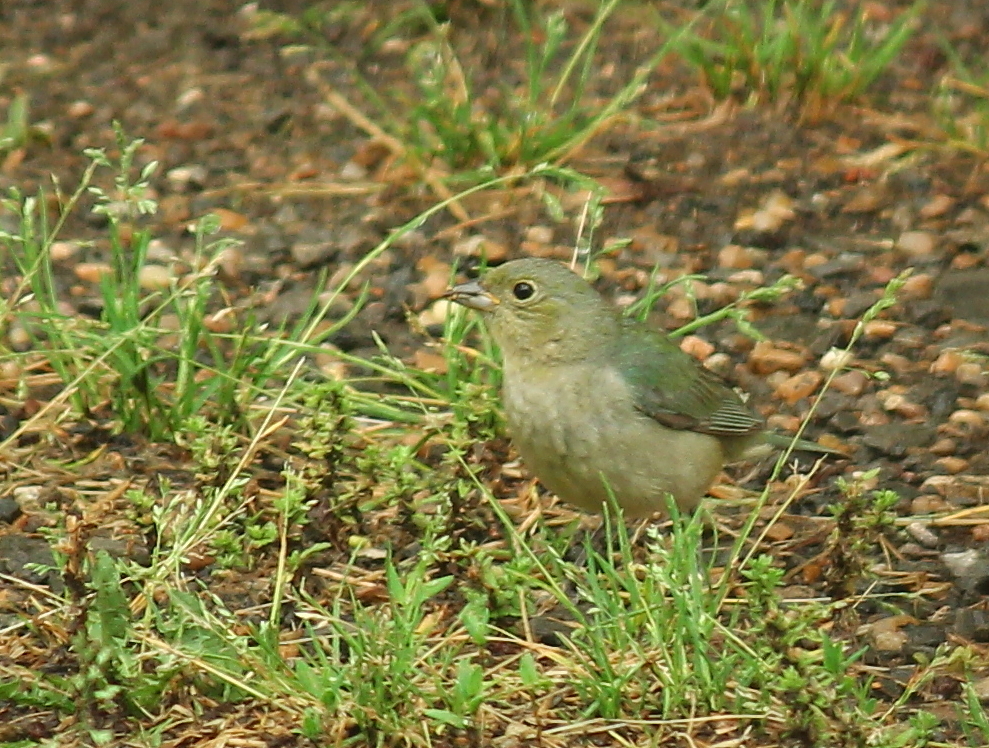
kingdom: Animalia
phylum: Chordata
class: Aves
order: Passeriformes
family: Cardinalidae
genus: Passerina
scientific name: Passerina ciris
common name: Painted bunting
